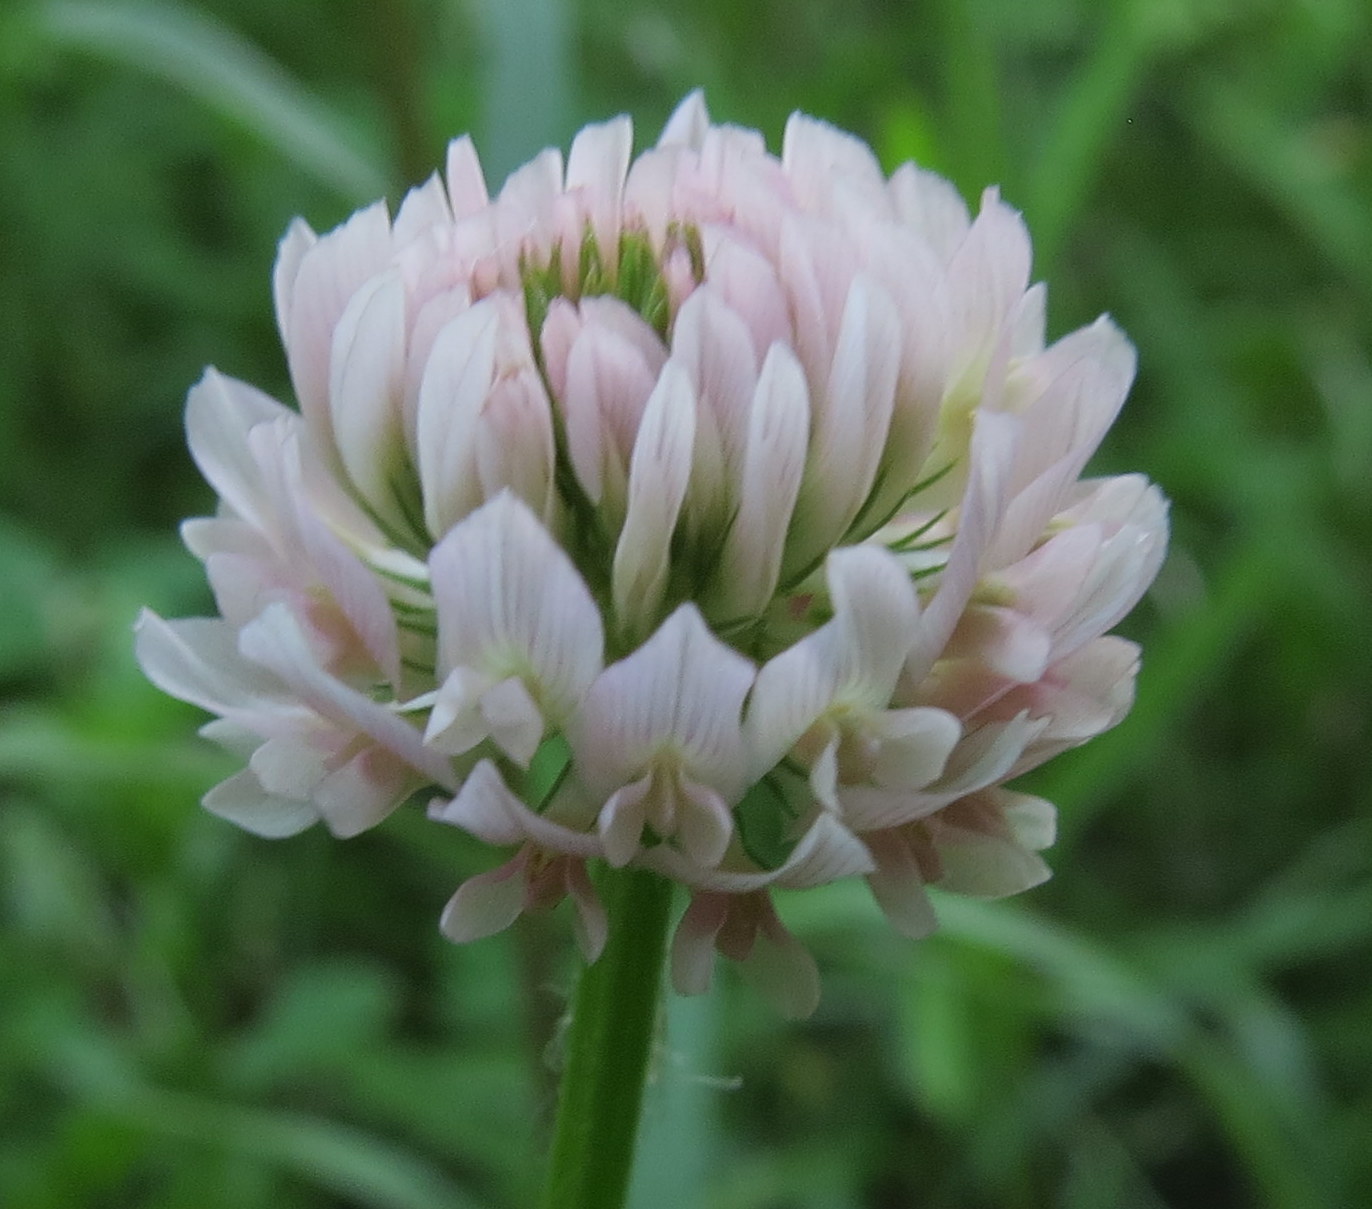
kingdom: Plantae
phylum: Tracheophyta
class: Magnoliopsida
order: Fabales
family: Fabaceae
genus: Trifolium
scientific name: Trifolium hybridum
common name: Alsike clover
